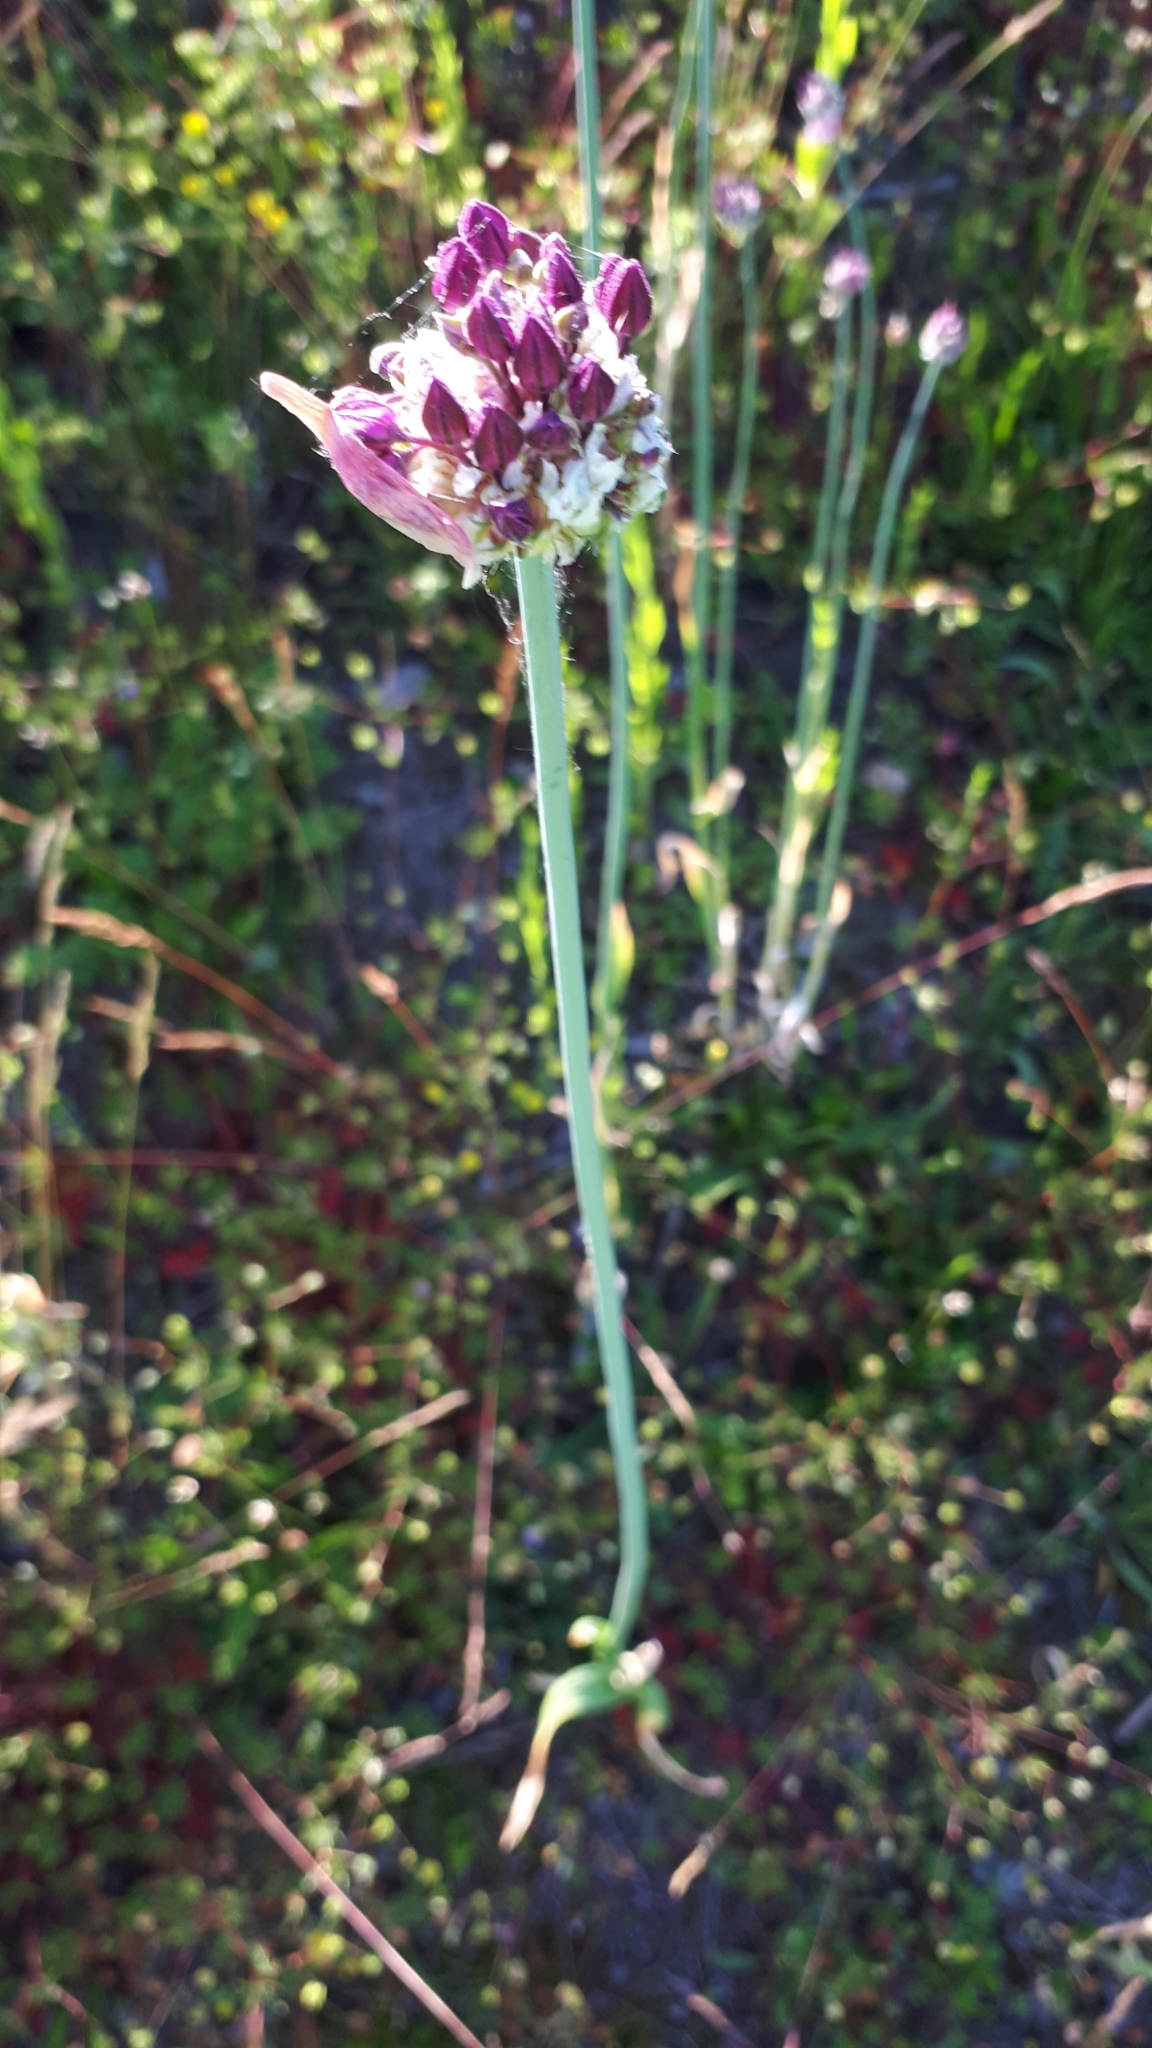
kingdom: Plantae
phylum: Tracheophyta
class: Liliopsida
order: Asparagales
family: Amaryllidaceae
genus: Allium
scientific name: Allium scorodoprasum
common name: Sand leek
